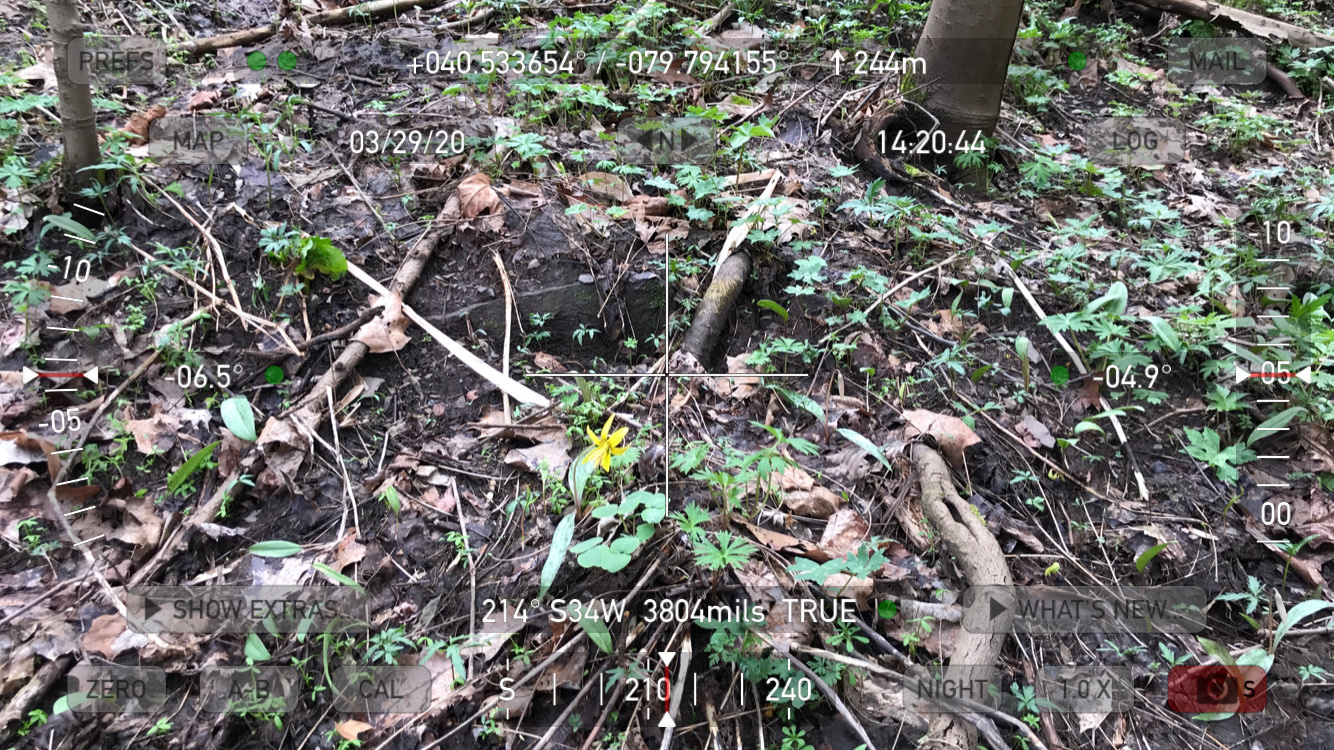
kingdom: Plantae
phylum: Tracheophyta
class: Liliopsida
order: Liliales
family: Liliaceae
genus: Erythronium
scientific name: Erythronium americanum
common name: Yellow adder's-tongue
